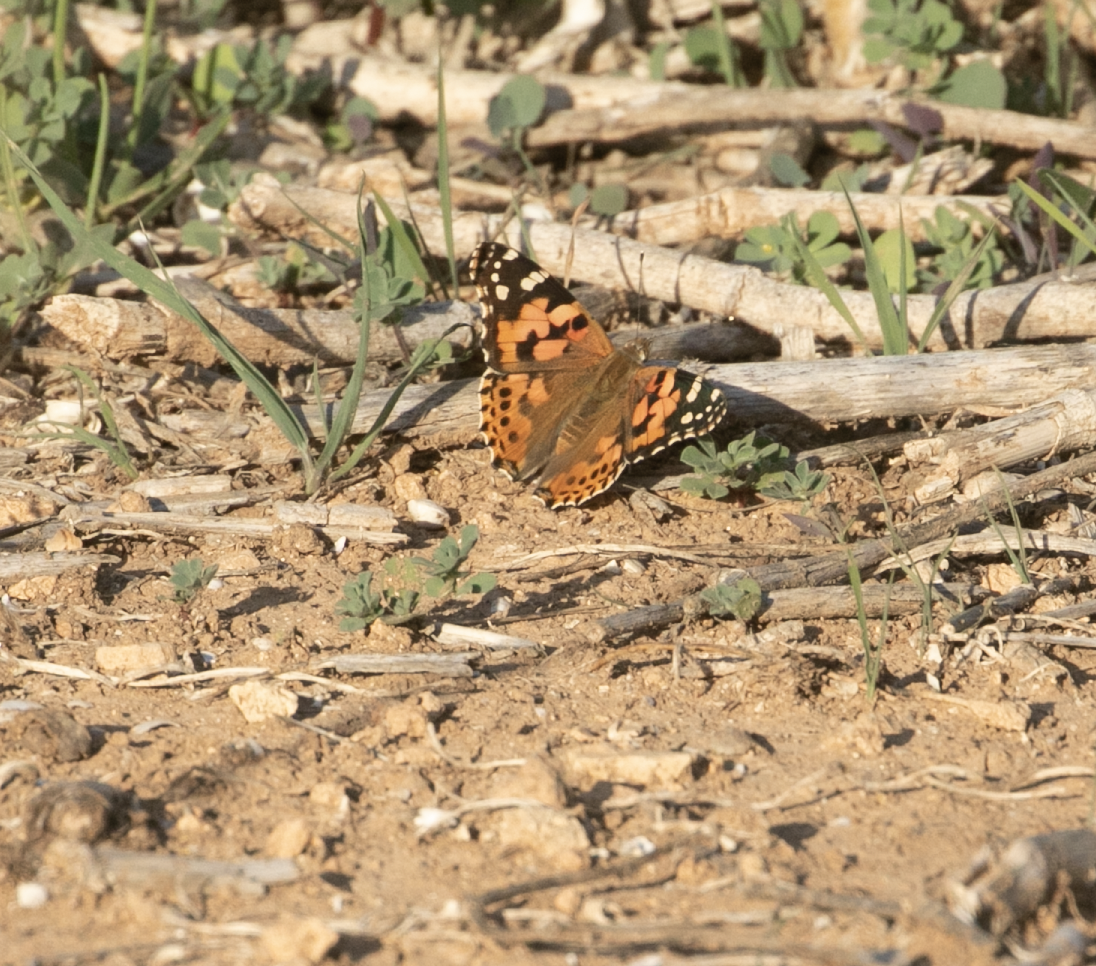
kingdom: Animalia
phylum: Arthropoda
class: Insecta
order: Lepidoptera
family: Nymphalidae
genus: Vanessa
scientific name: Vanessa cardui
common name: Painted lady
